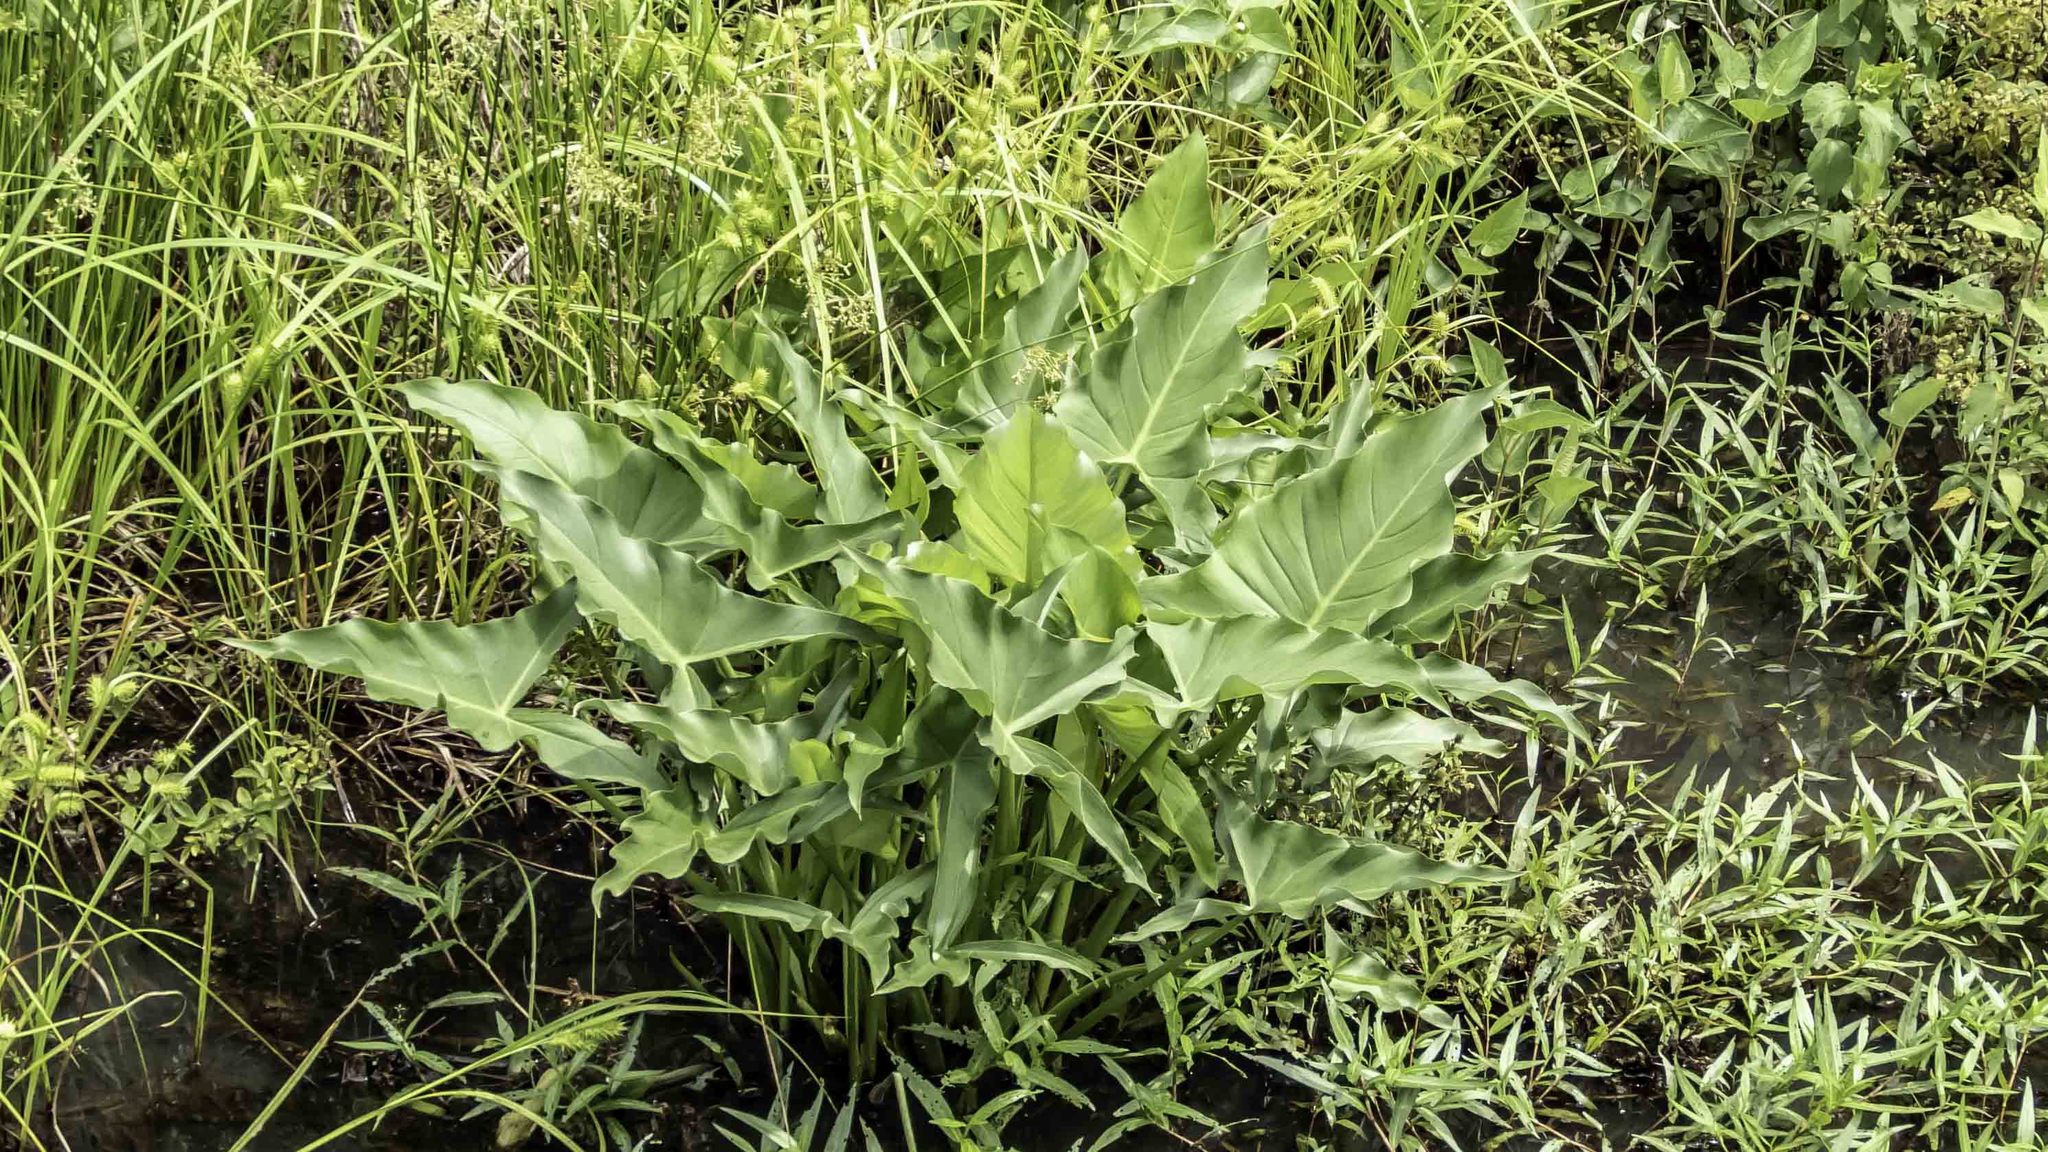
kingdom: Plantae
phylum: Tracheophyta
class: Liliopsida
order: Alismatales
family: Araceae
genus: Peltandra
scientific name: Peltandra virginica
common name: Arrow arum
